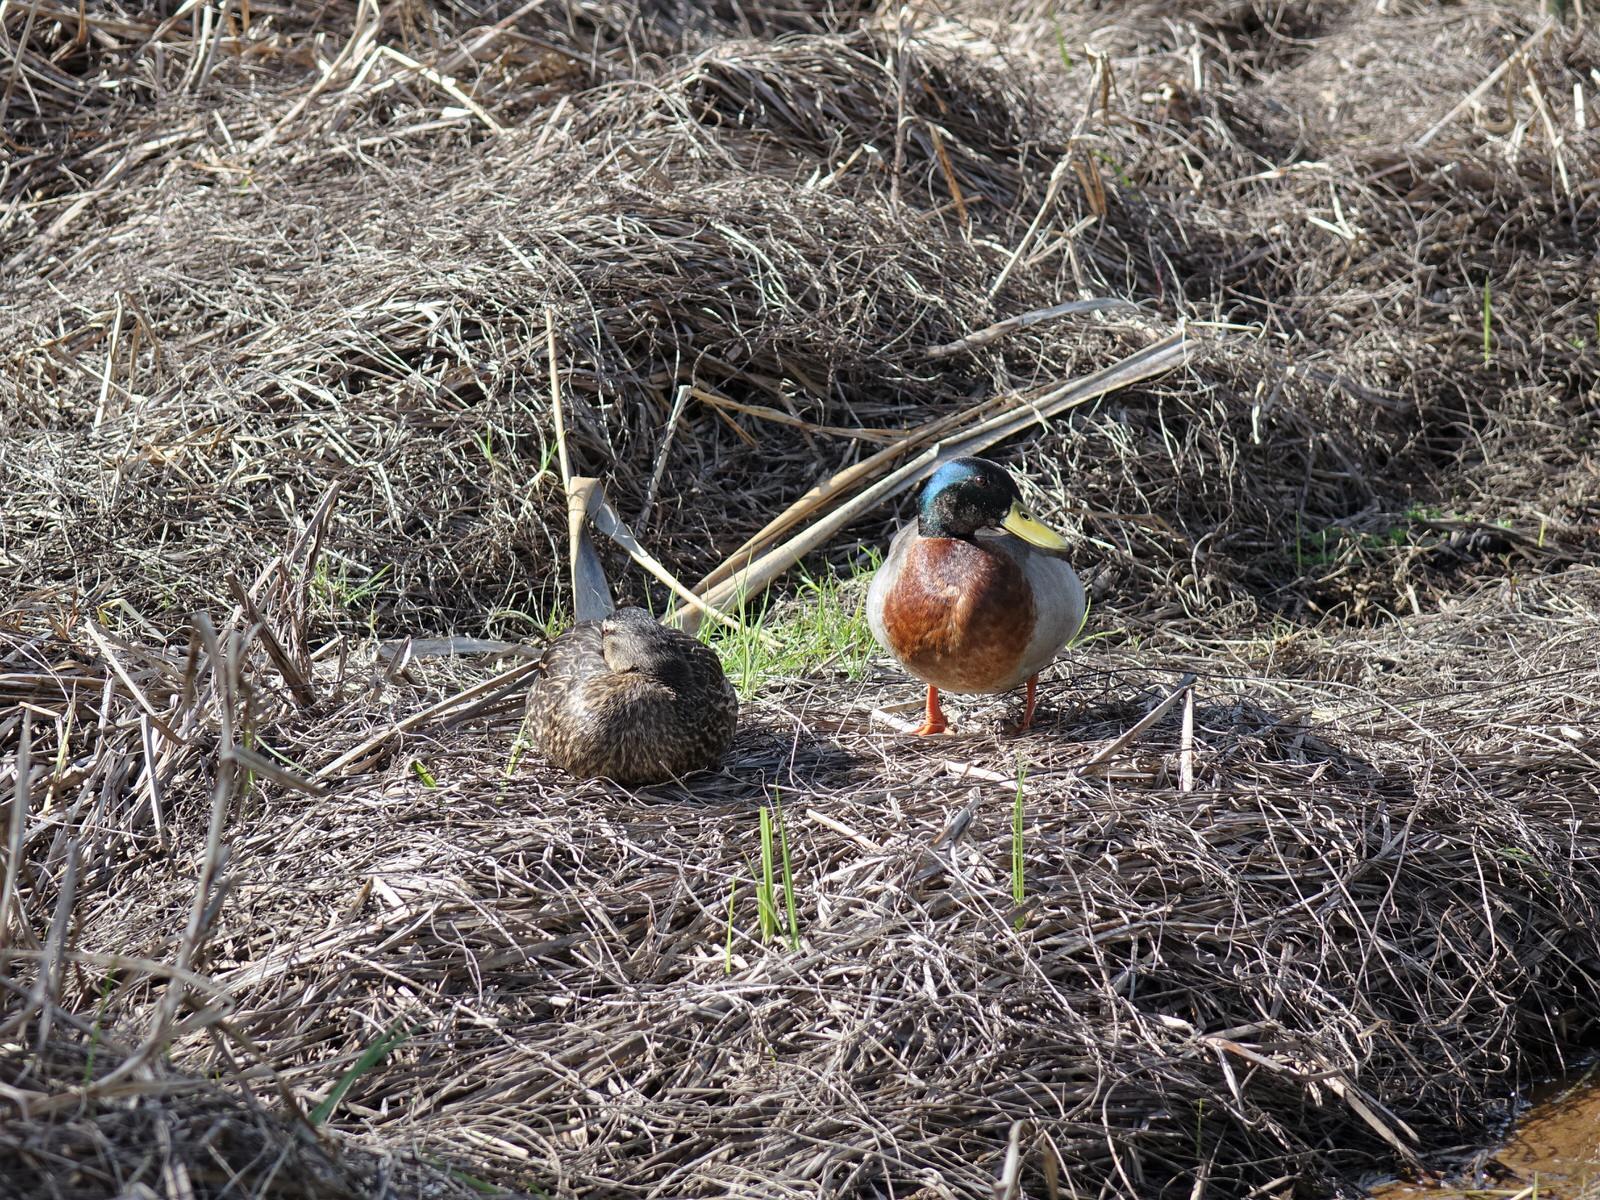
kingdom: Animalia
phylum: Chordata
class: Aves
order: Anseriformes
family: Anatidae
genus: Anas
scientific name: Anas platyrhynchos
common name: Mallard
